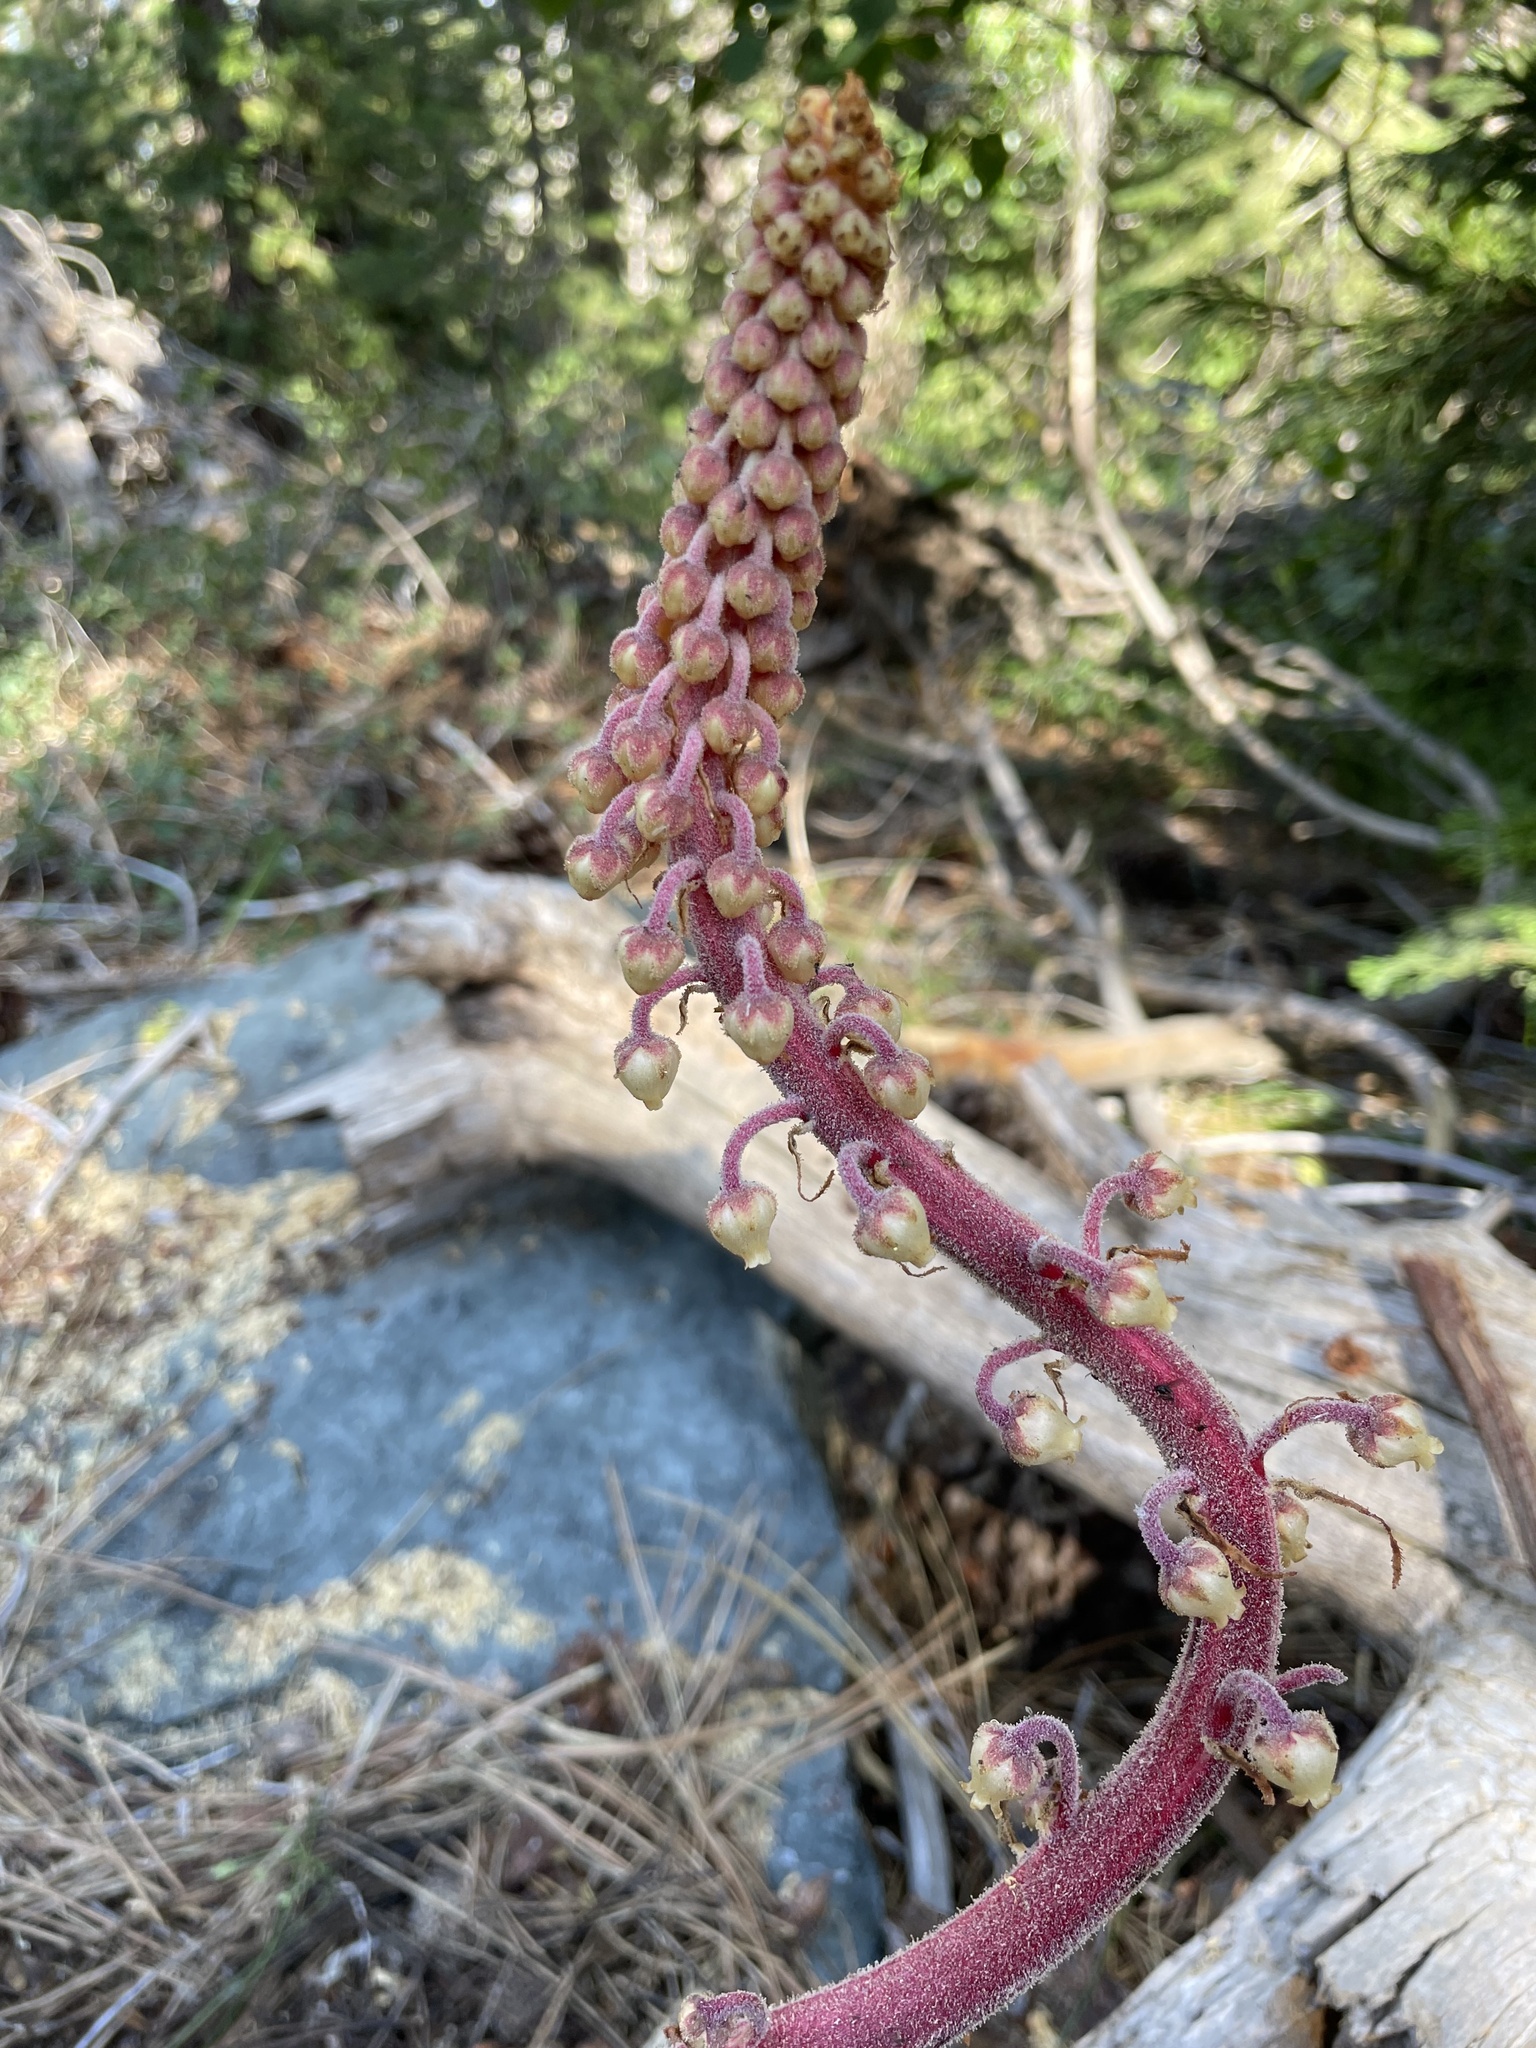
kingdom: Plantae
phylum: Tracheophyta
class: Magnoliopsida
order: Ericales
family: Ericaceae
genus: Pterospora
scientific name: Pterospora andromedea
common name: Giant bird's-nest
